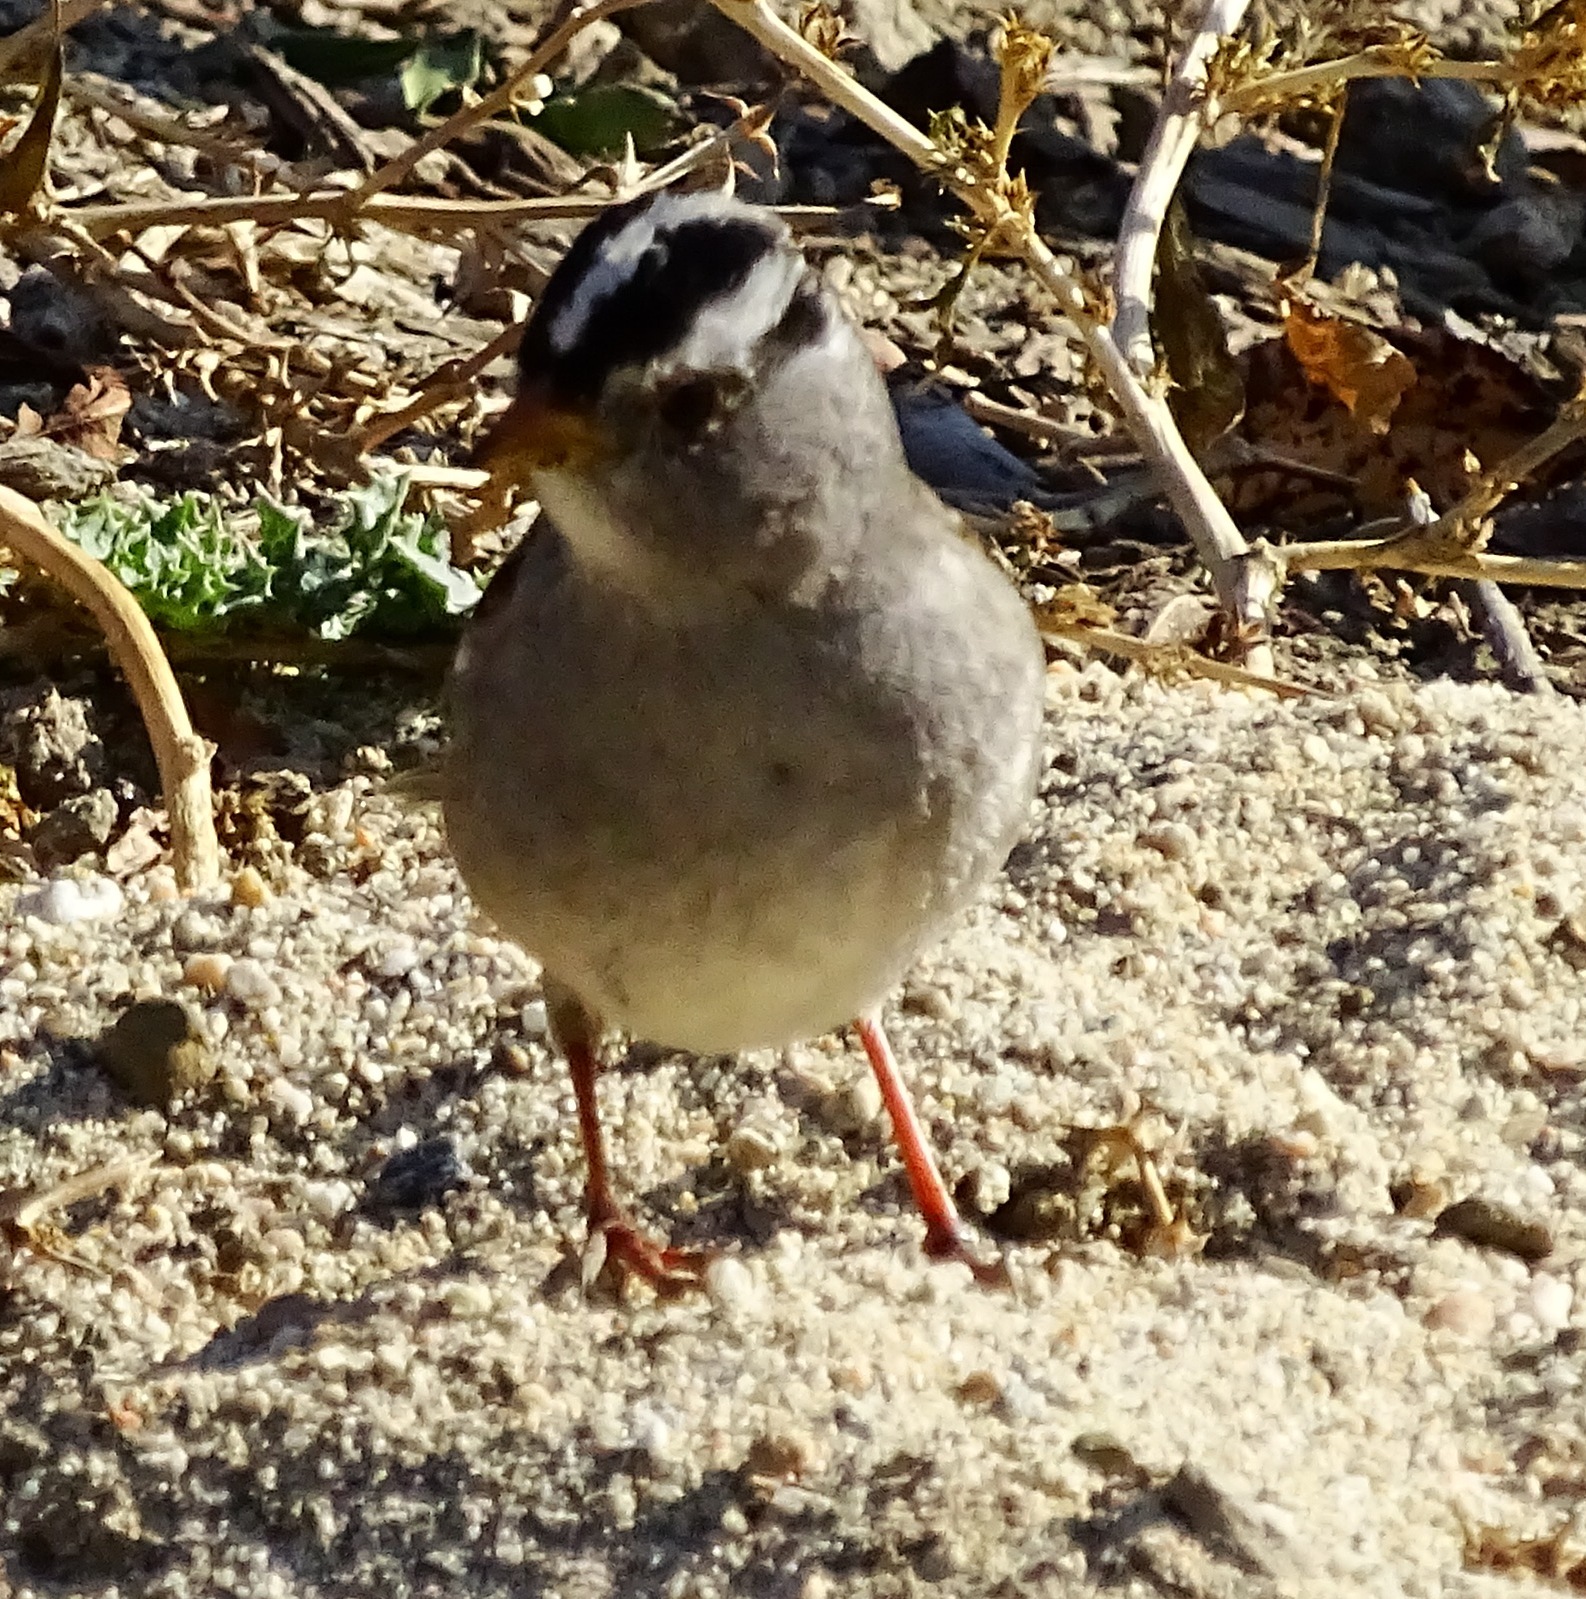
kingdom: Animalia
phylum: Chordata
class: Aves
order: Passeriformes
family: Passerellidae
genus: Zonotrichia
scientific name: Zonotrichia leucophrys
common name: White-crowned sparrow
